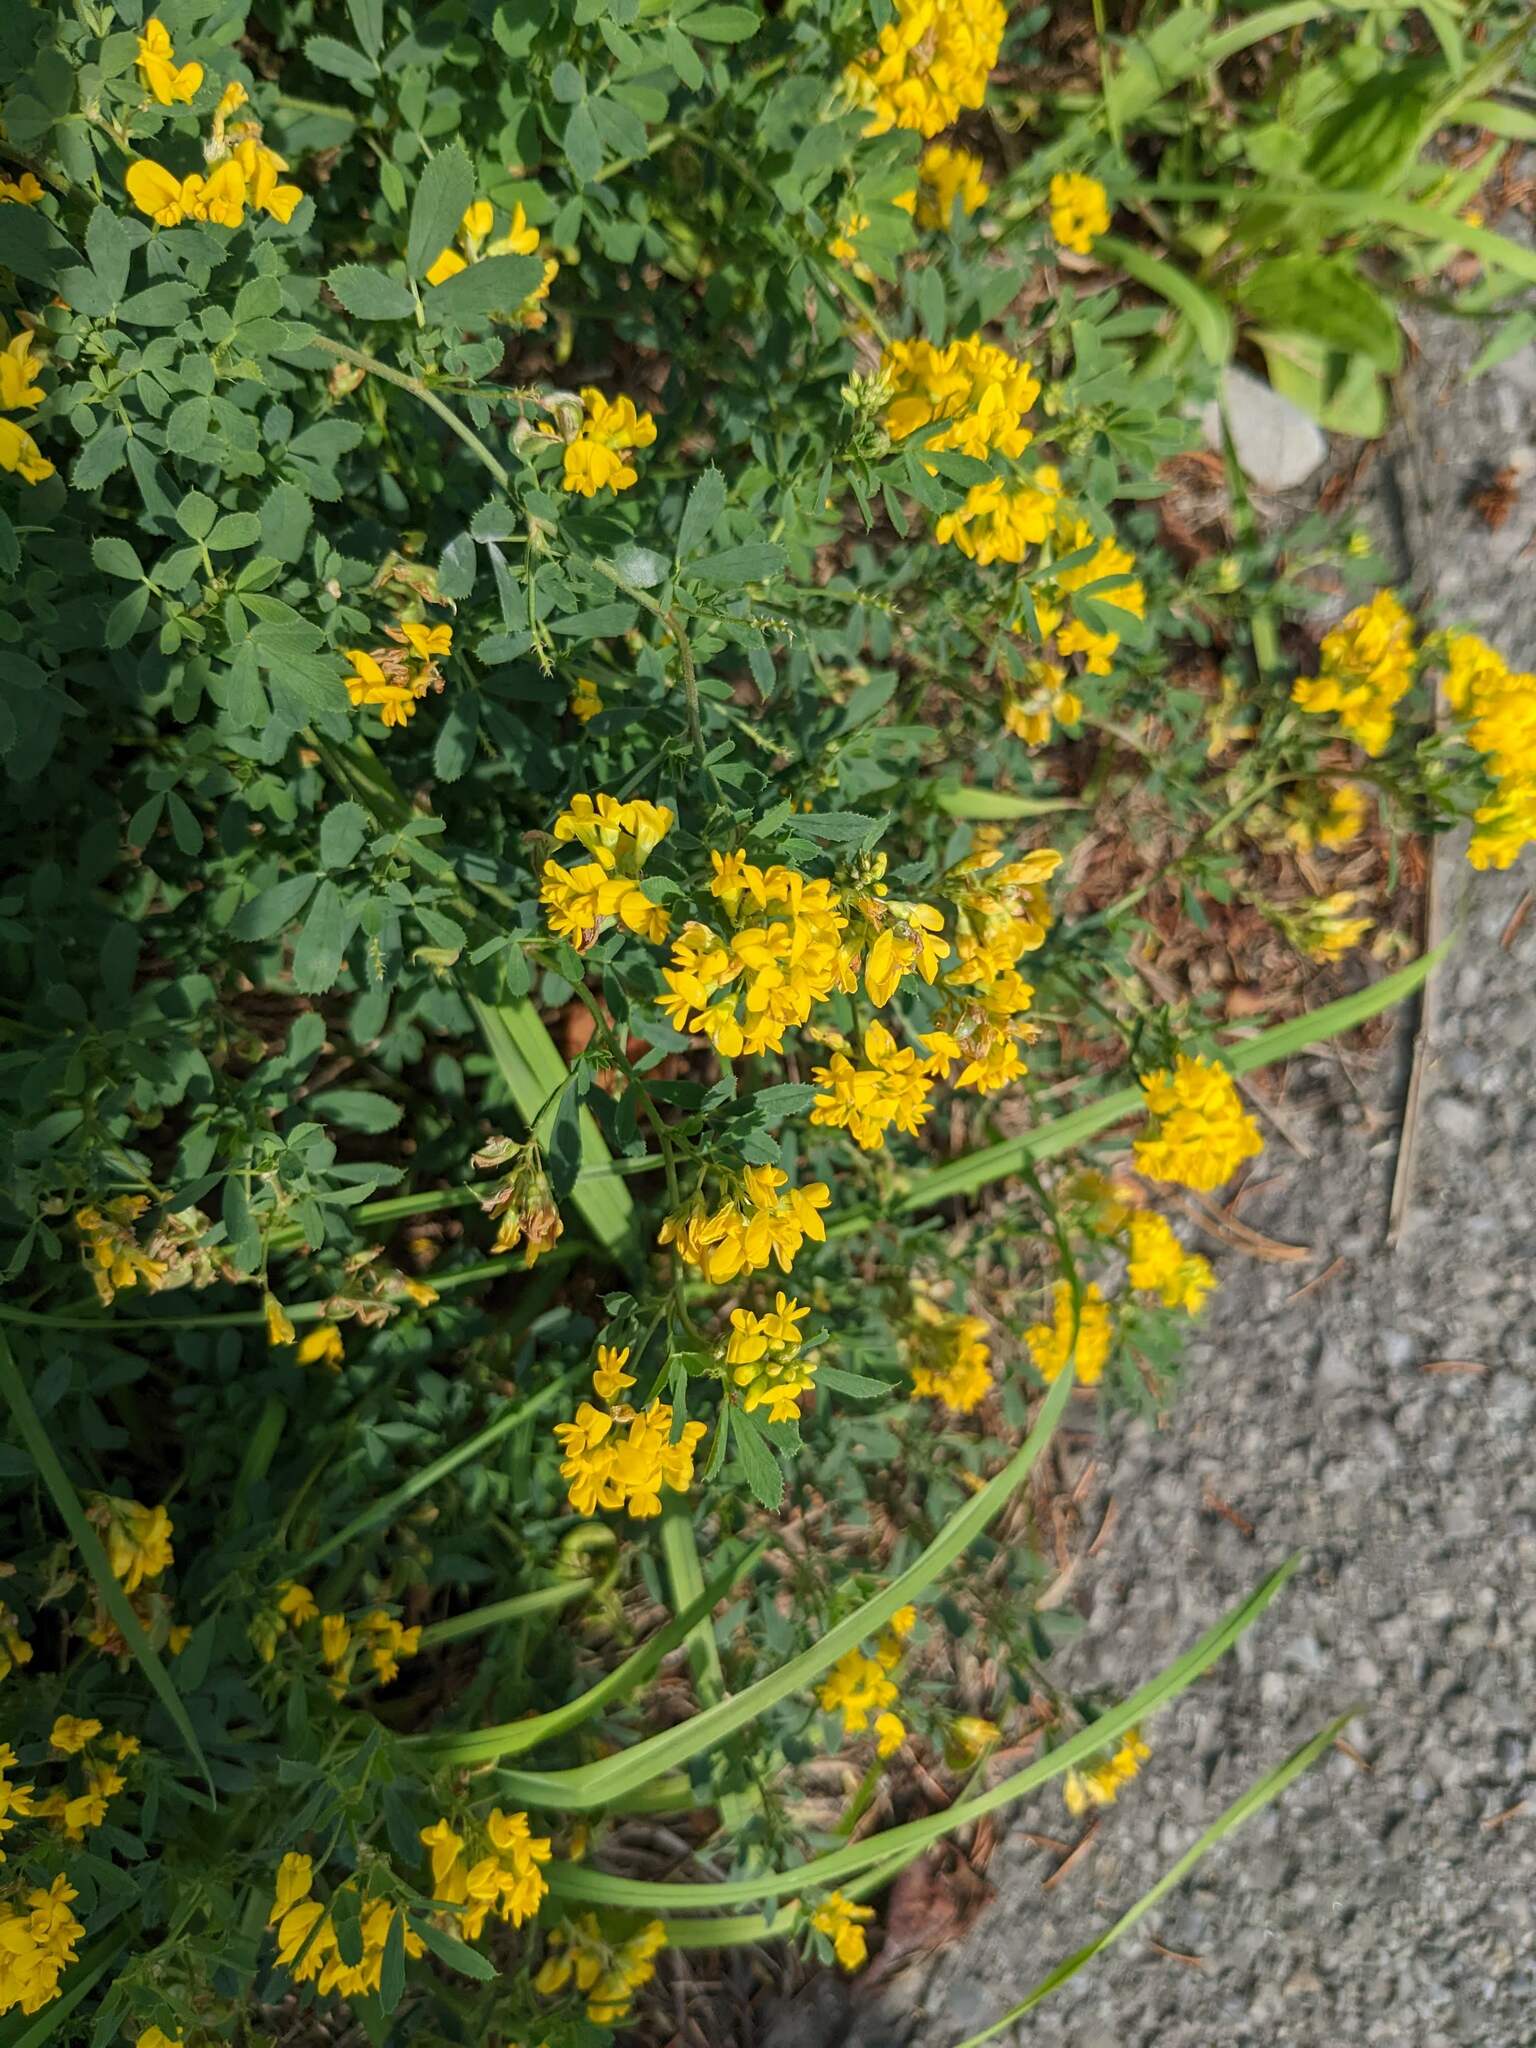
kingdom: Plantae
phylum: Tracheophyta
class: Magnoliopsida
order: Fabales
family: Fabaceae
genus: Medicago
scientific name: Medicago falcata
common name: Sickle medick
